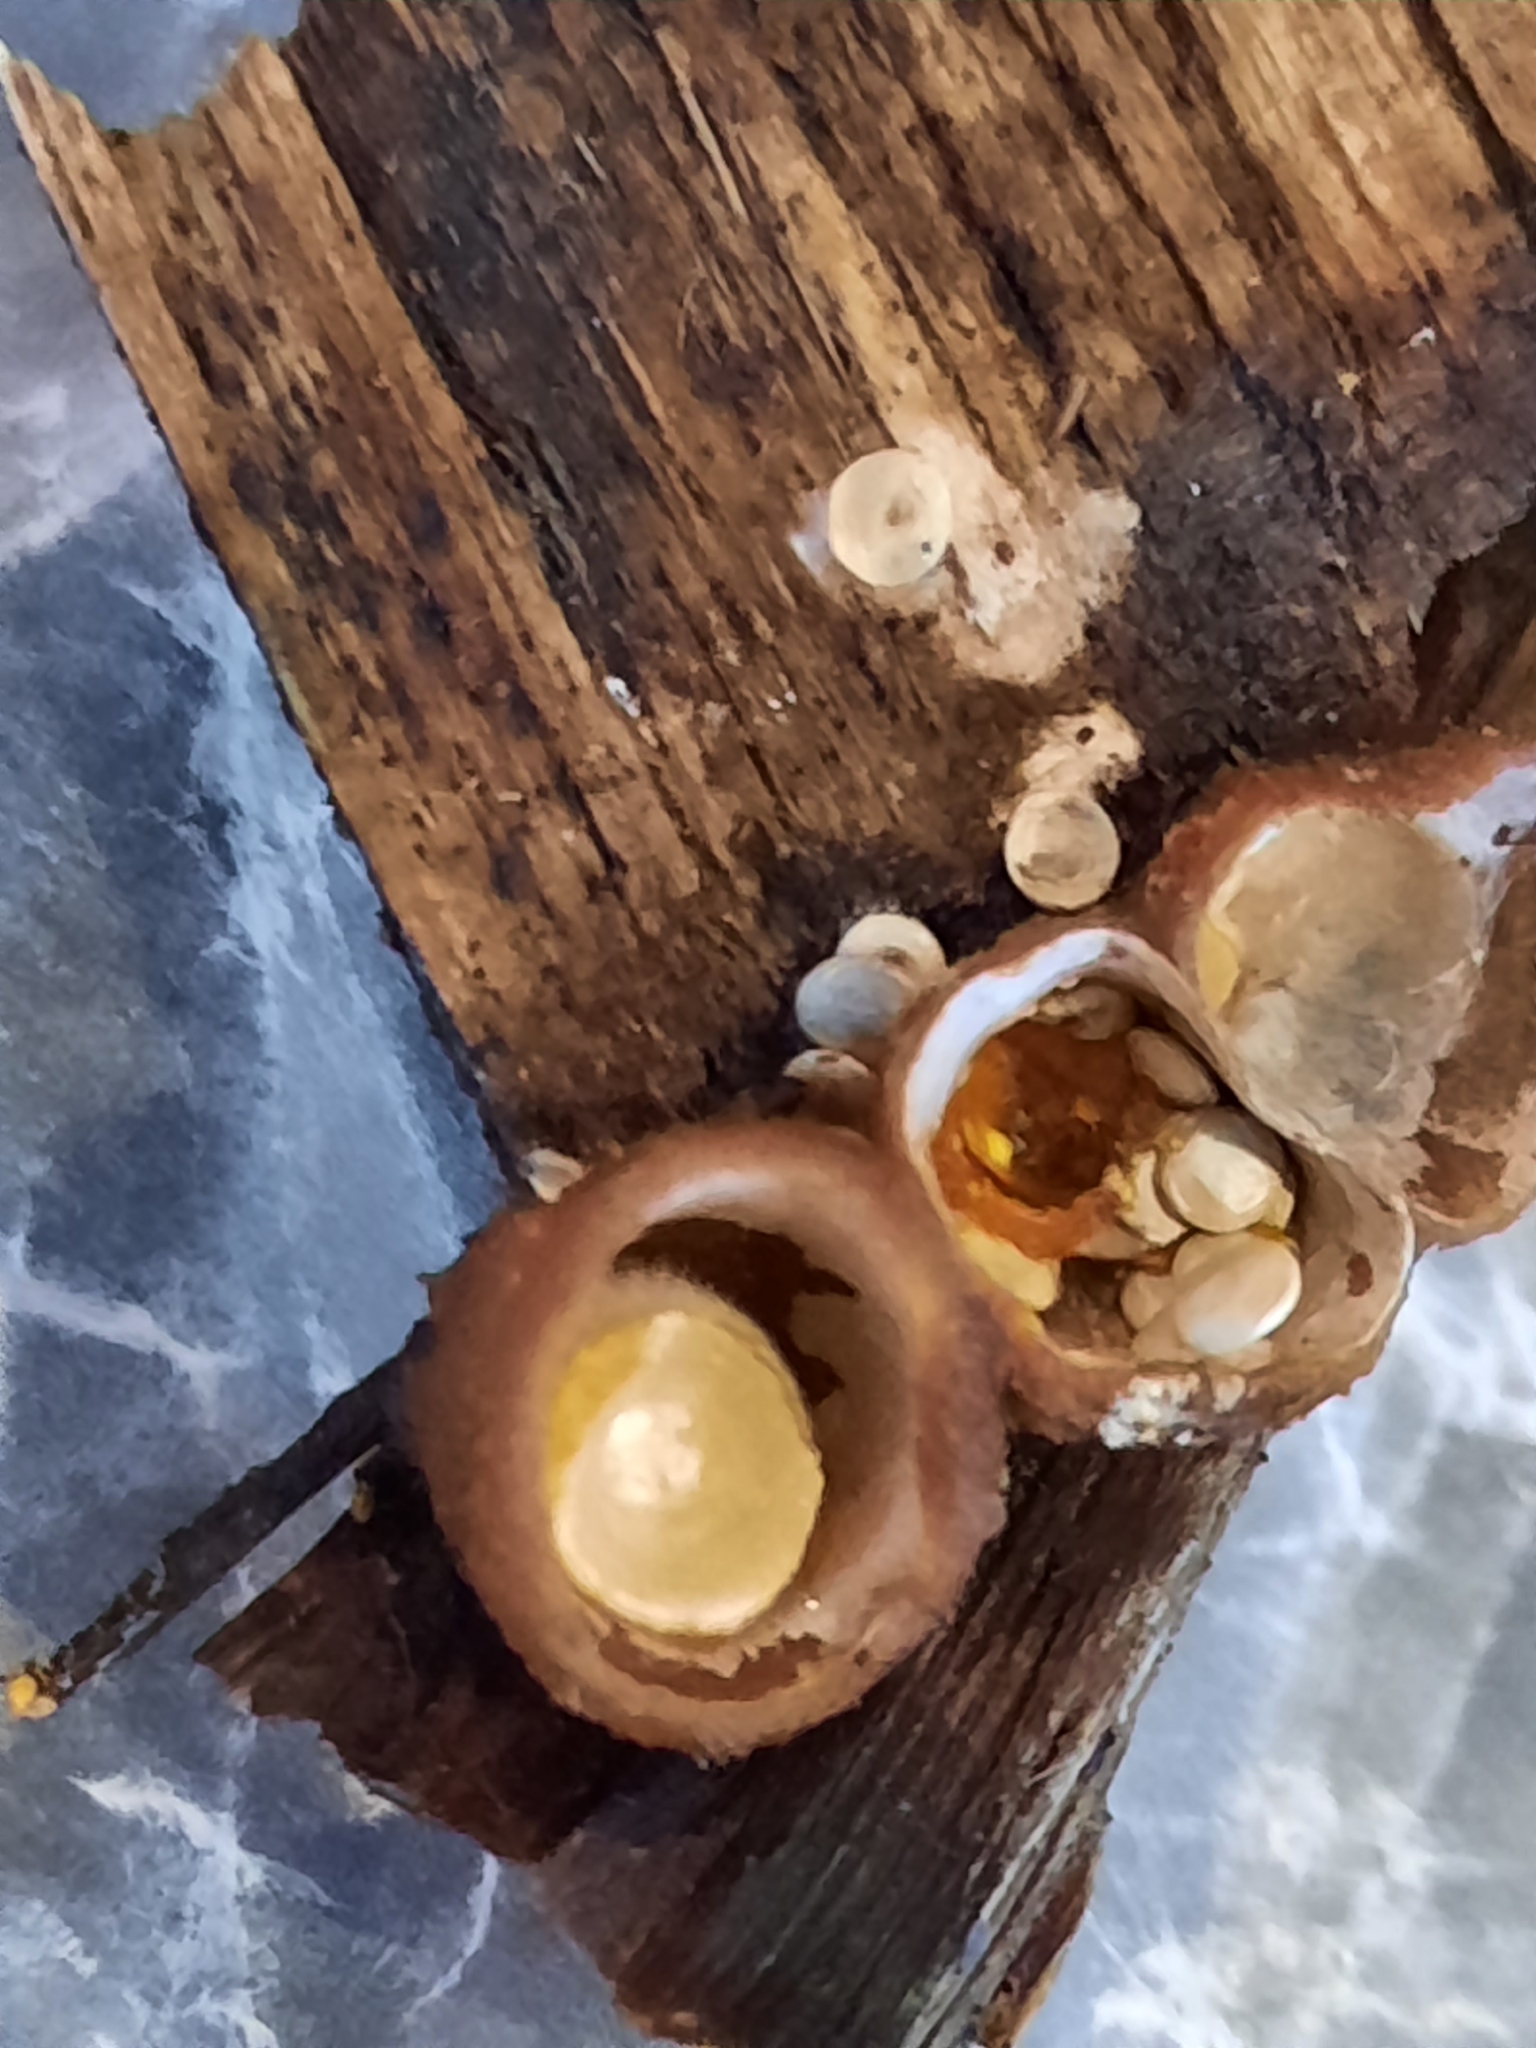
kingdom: Fungi
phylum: Basidiomycota
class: Agaricomycetes
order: Agaricales
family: Nidulariaceae
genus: Crucibulum
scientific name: Crucibulum laeve
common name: Common bird's nest
